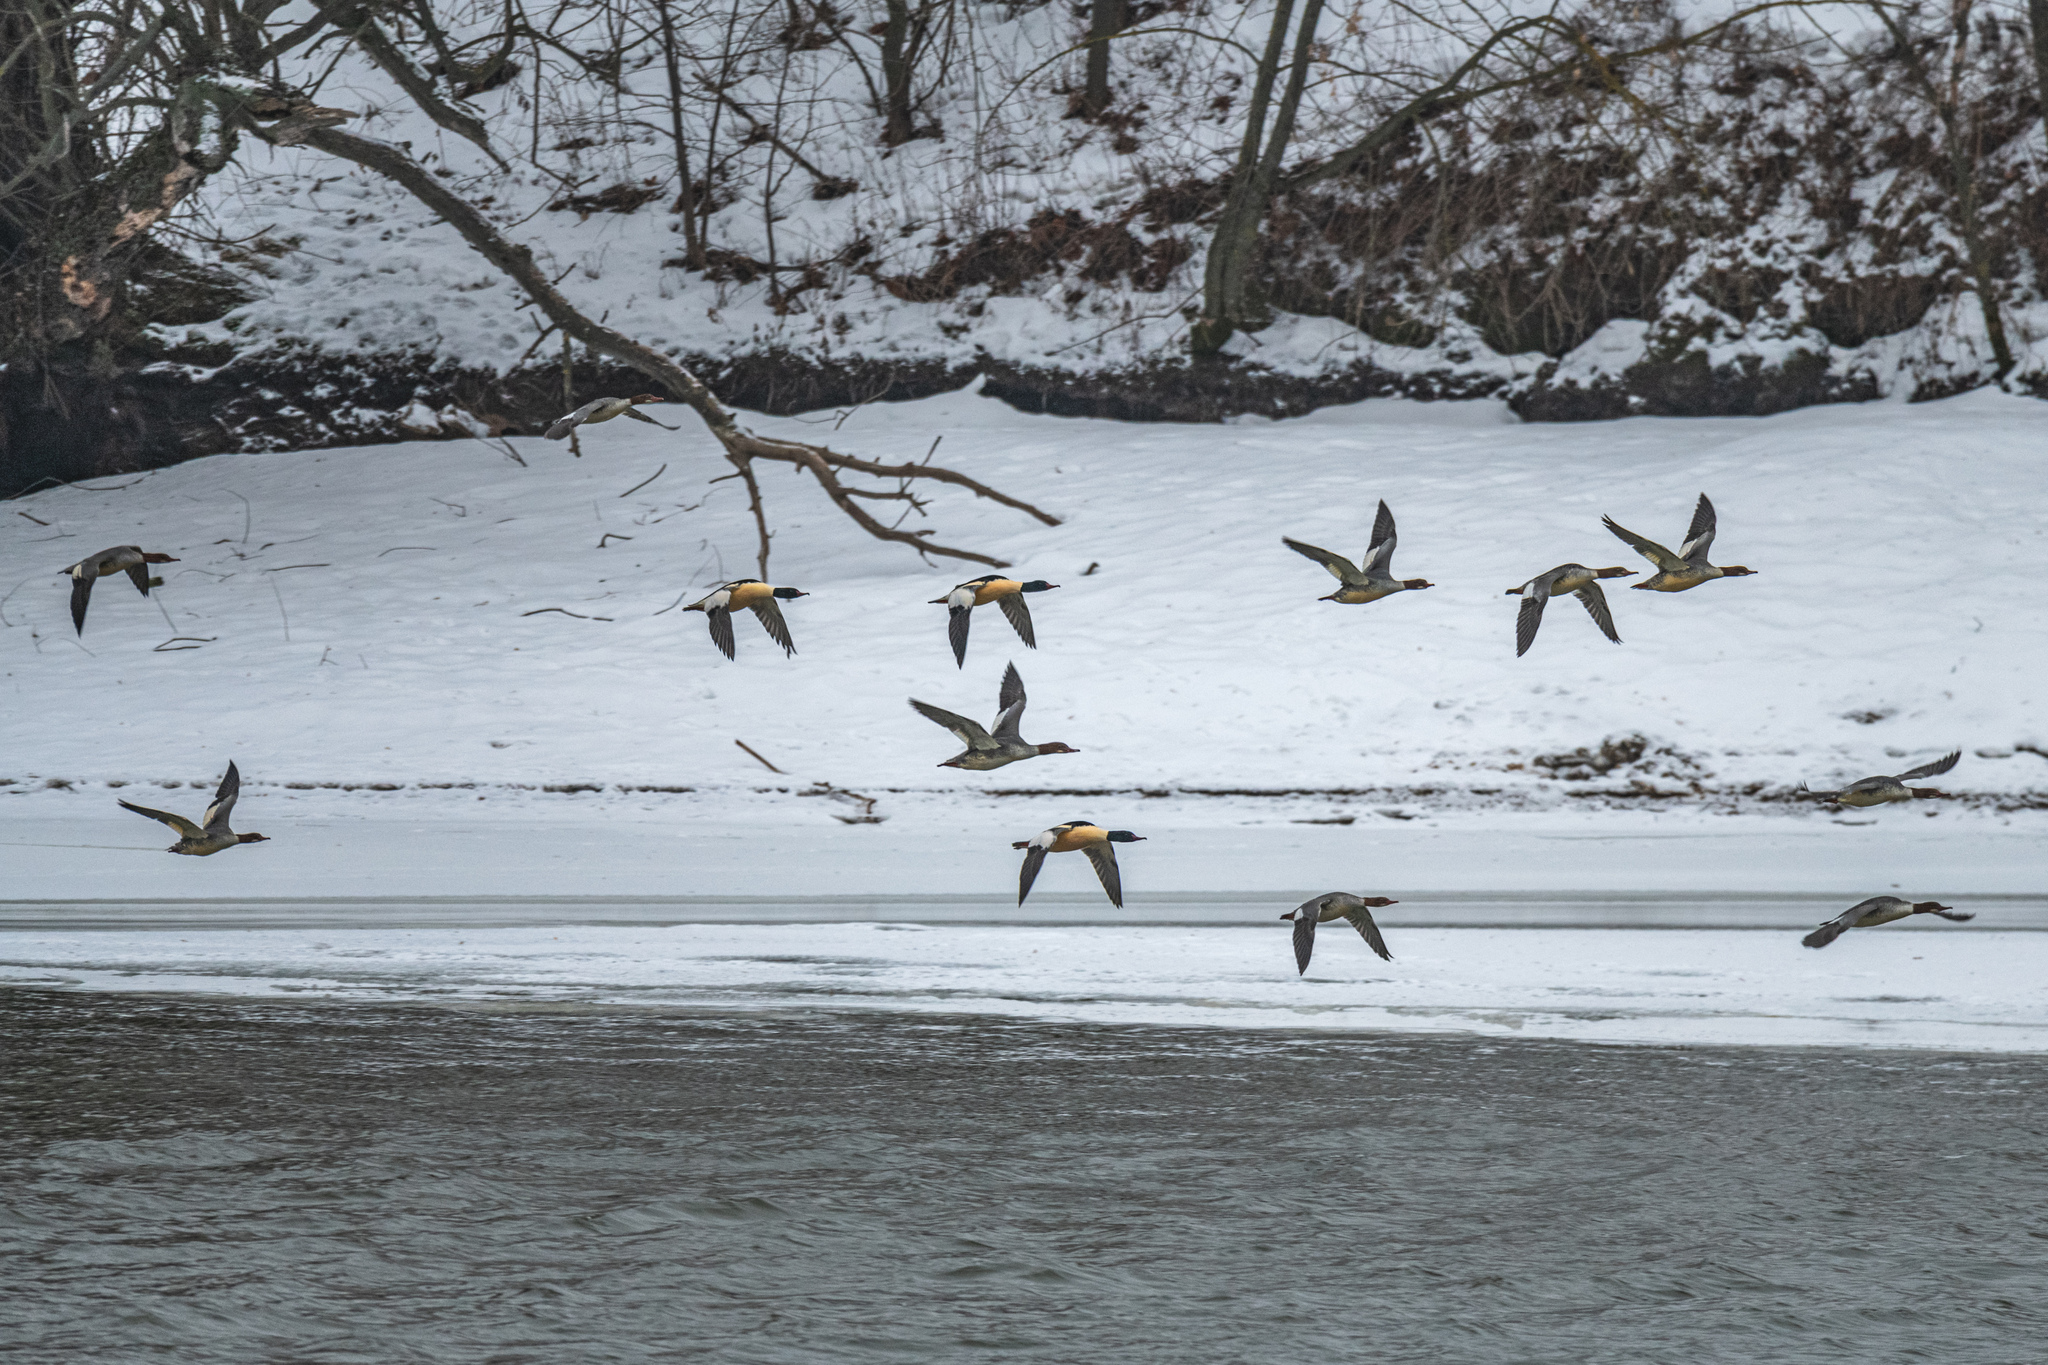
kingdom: Animalia
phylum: Chordata
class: Aves
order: Anseriformes
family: Anatidae
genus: Mergus
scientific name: Mergus merganser
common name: Common merganser
